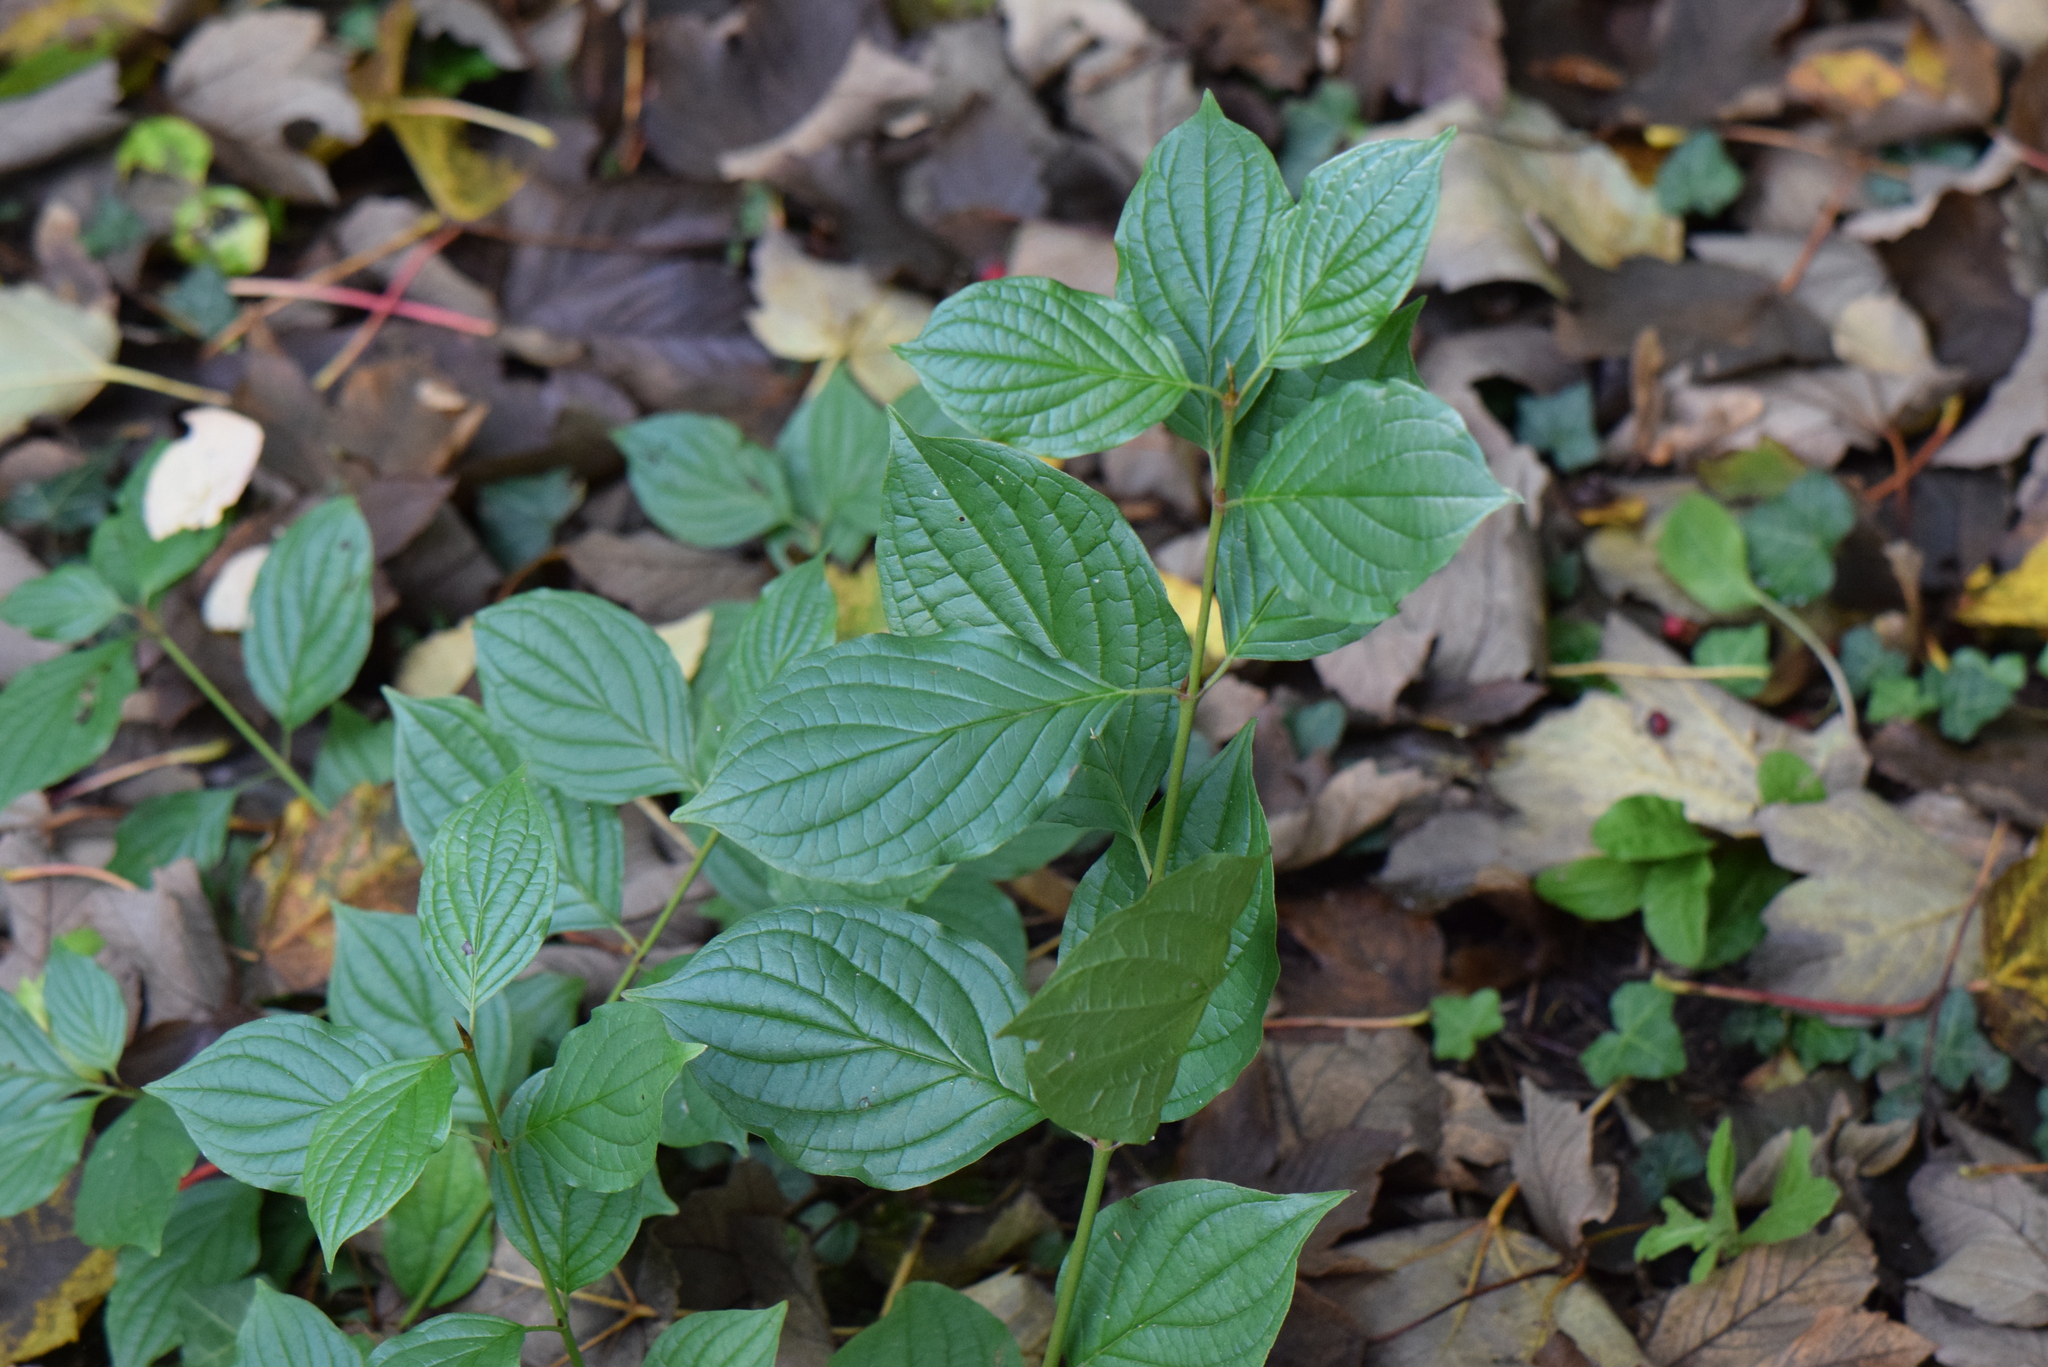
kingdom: Plantae
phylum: Tracheophyta
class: Magnoliopsida
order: Cornales
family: Cornaceae
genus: Cornus
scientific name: Cornus sanguinea
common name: Dogwood
